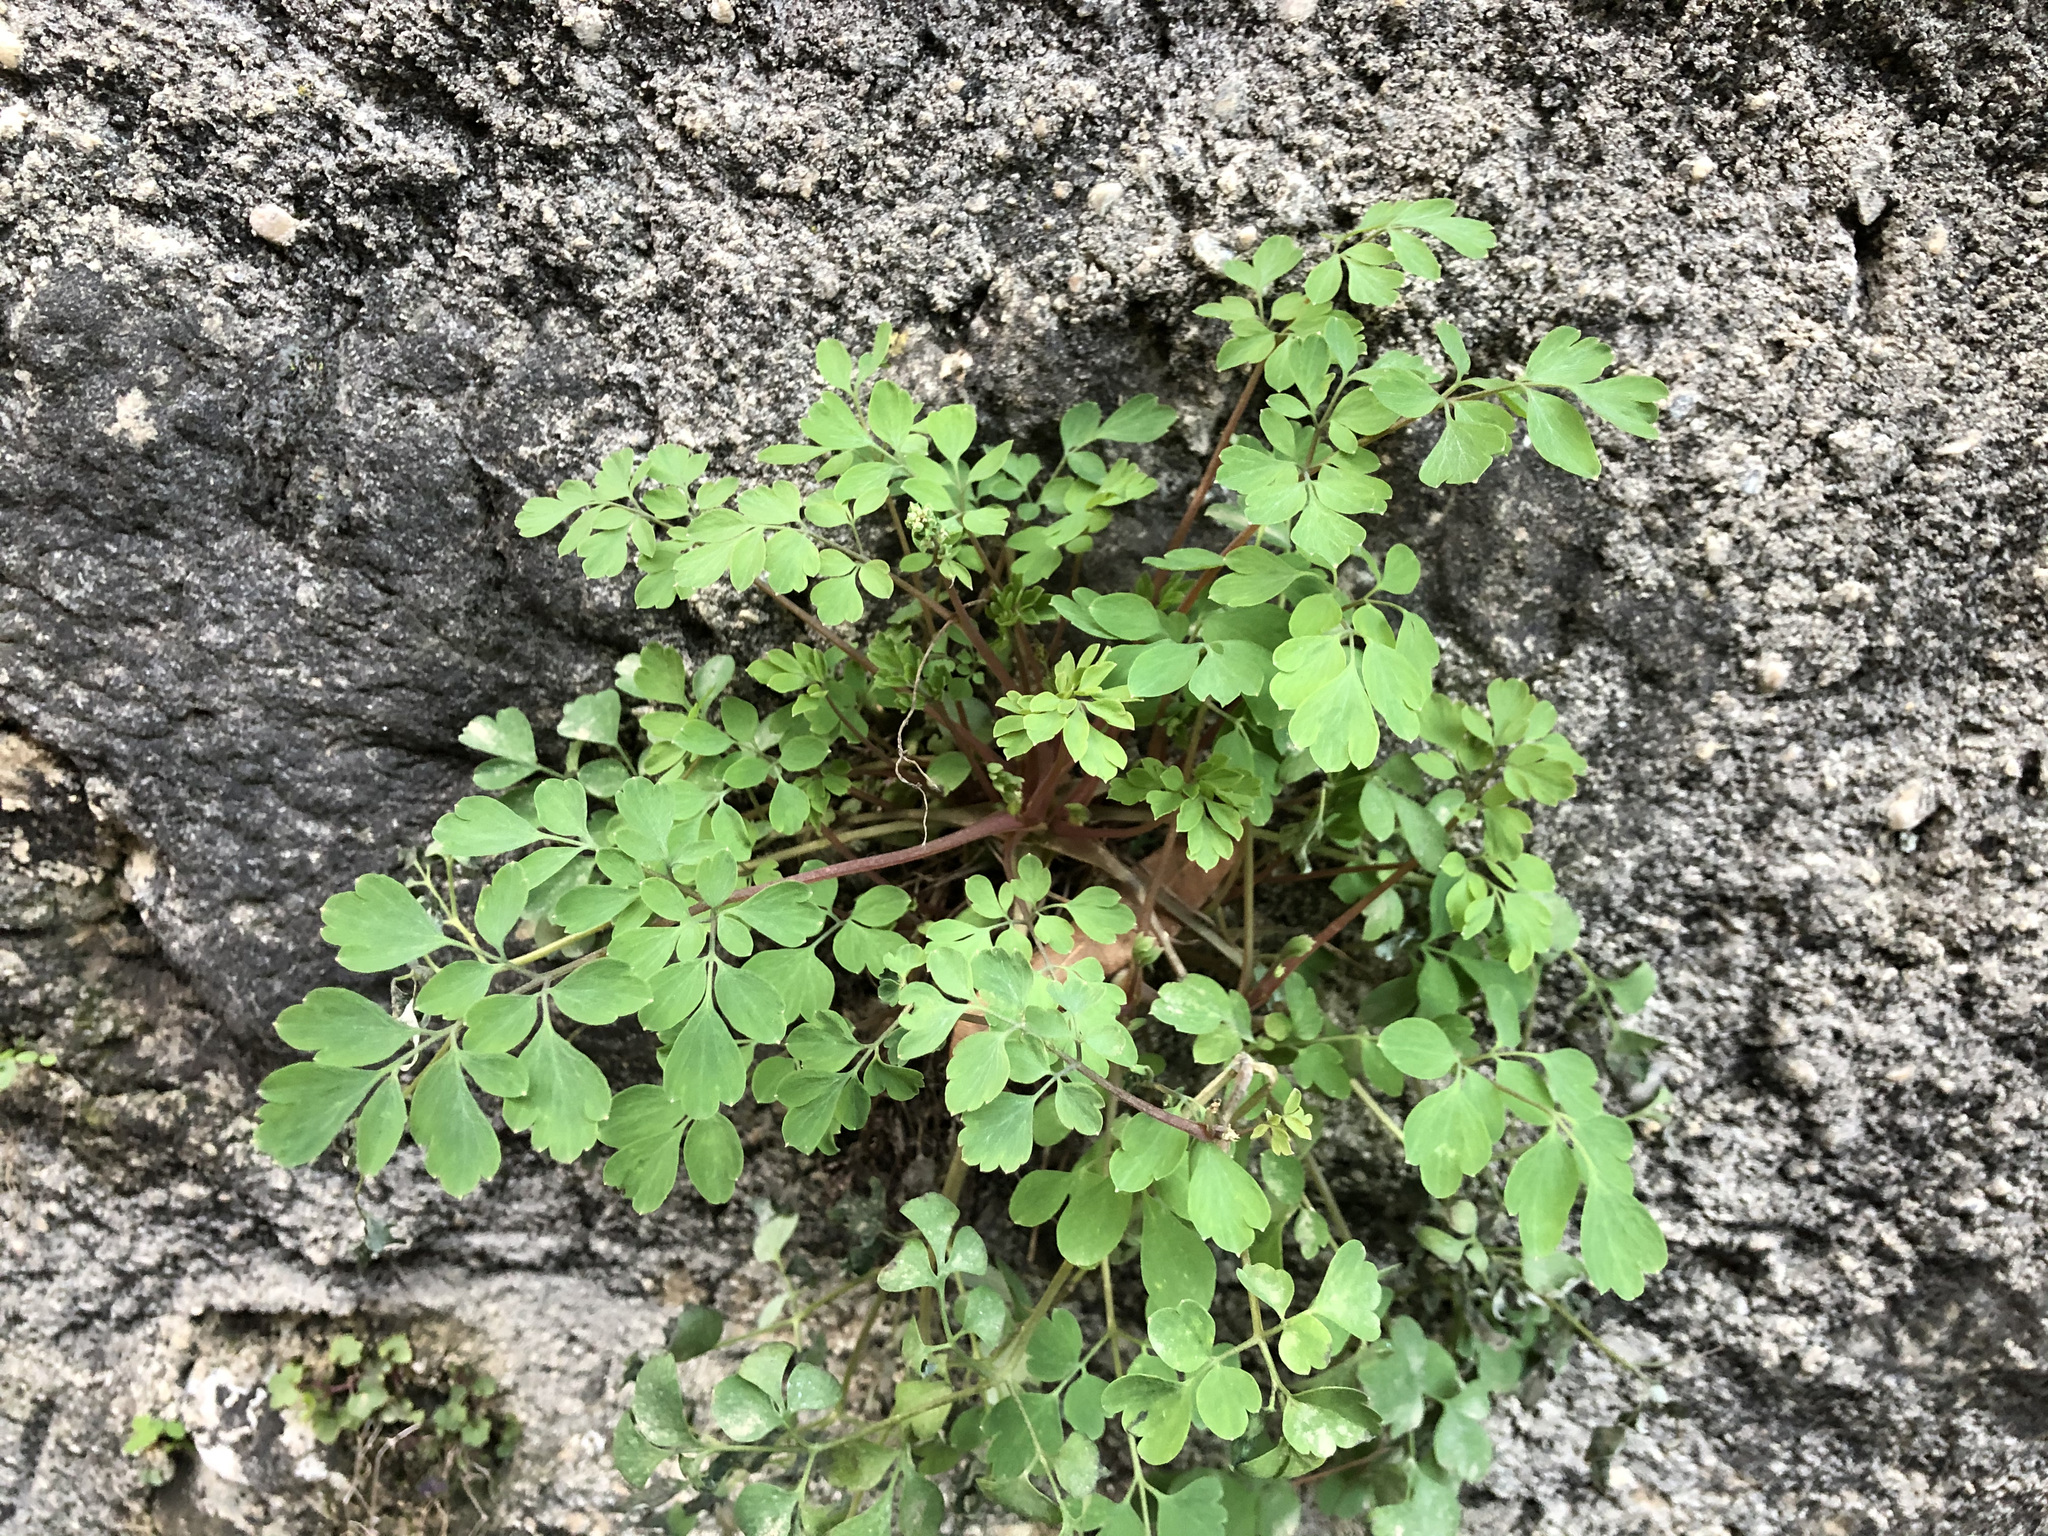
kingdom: Plantae
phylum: Tracheophyta
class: Magnoliopsida
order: Ranunculales
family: Papaveraceae
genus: Pseudofumaria
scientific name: Pseudofumaria lutea
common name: Yellow corydalis
